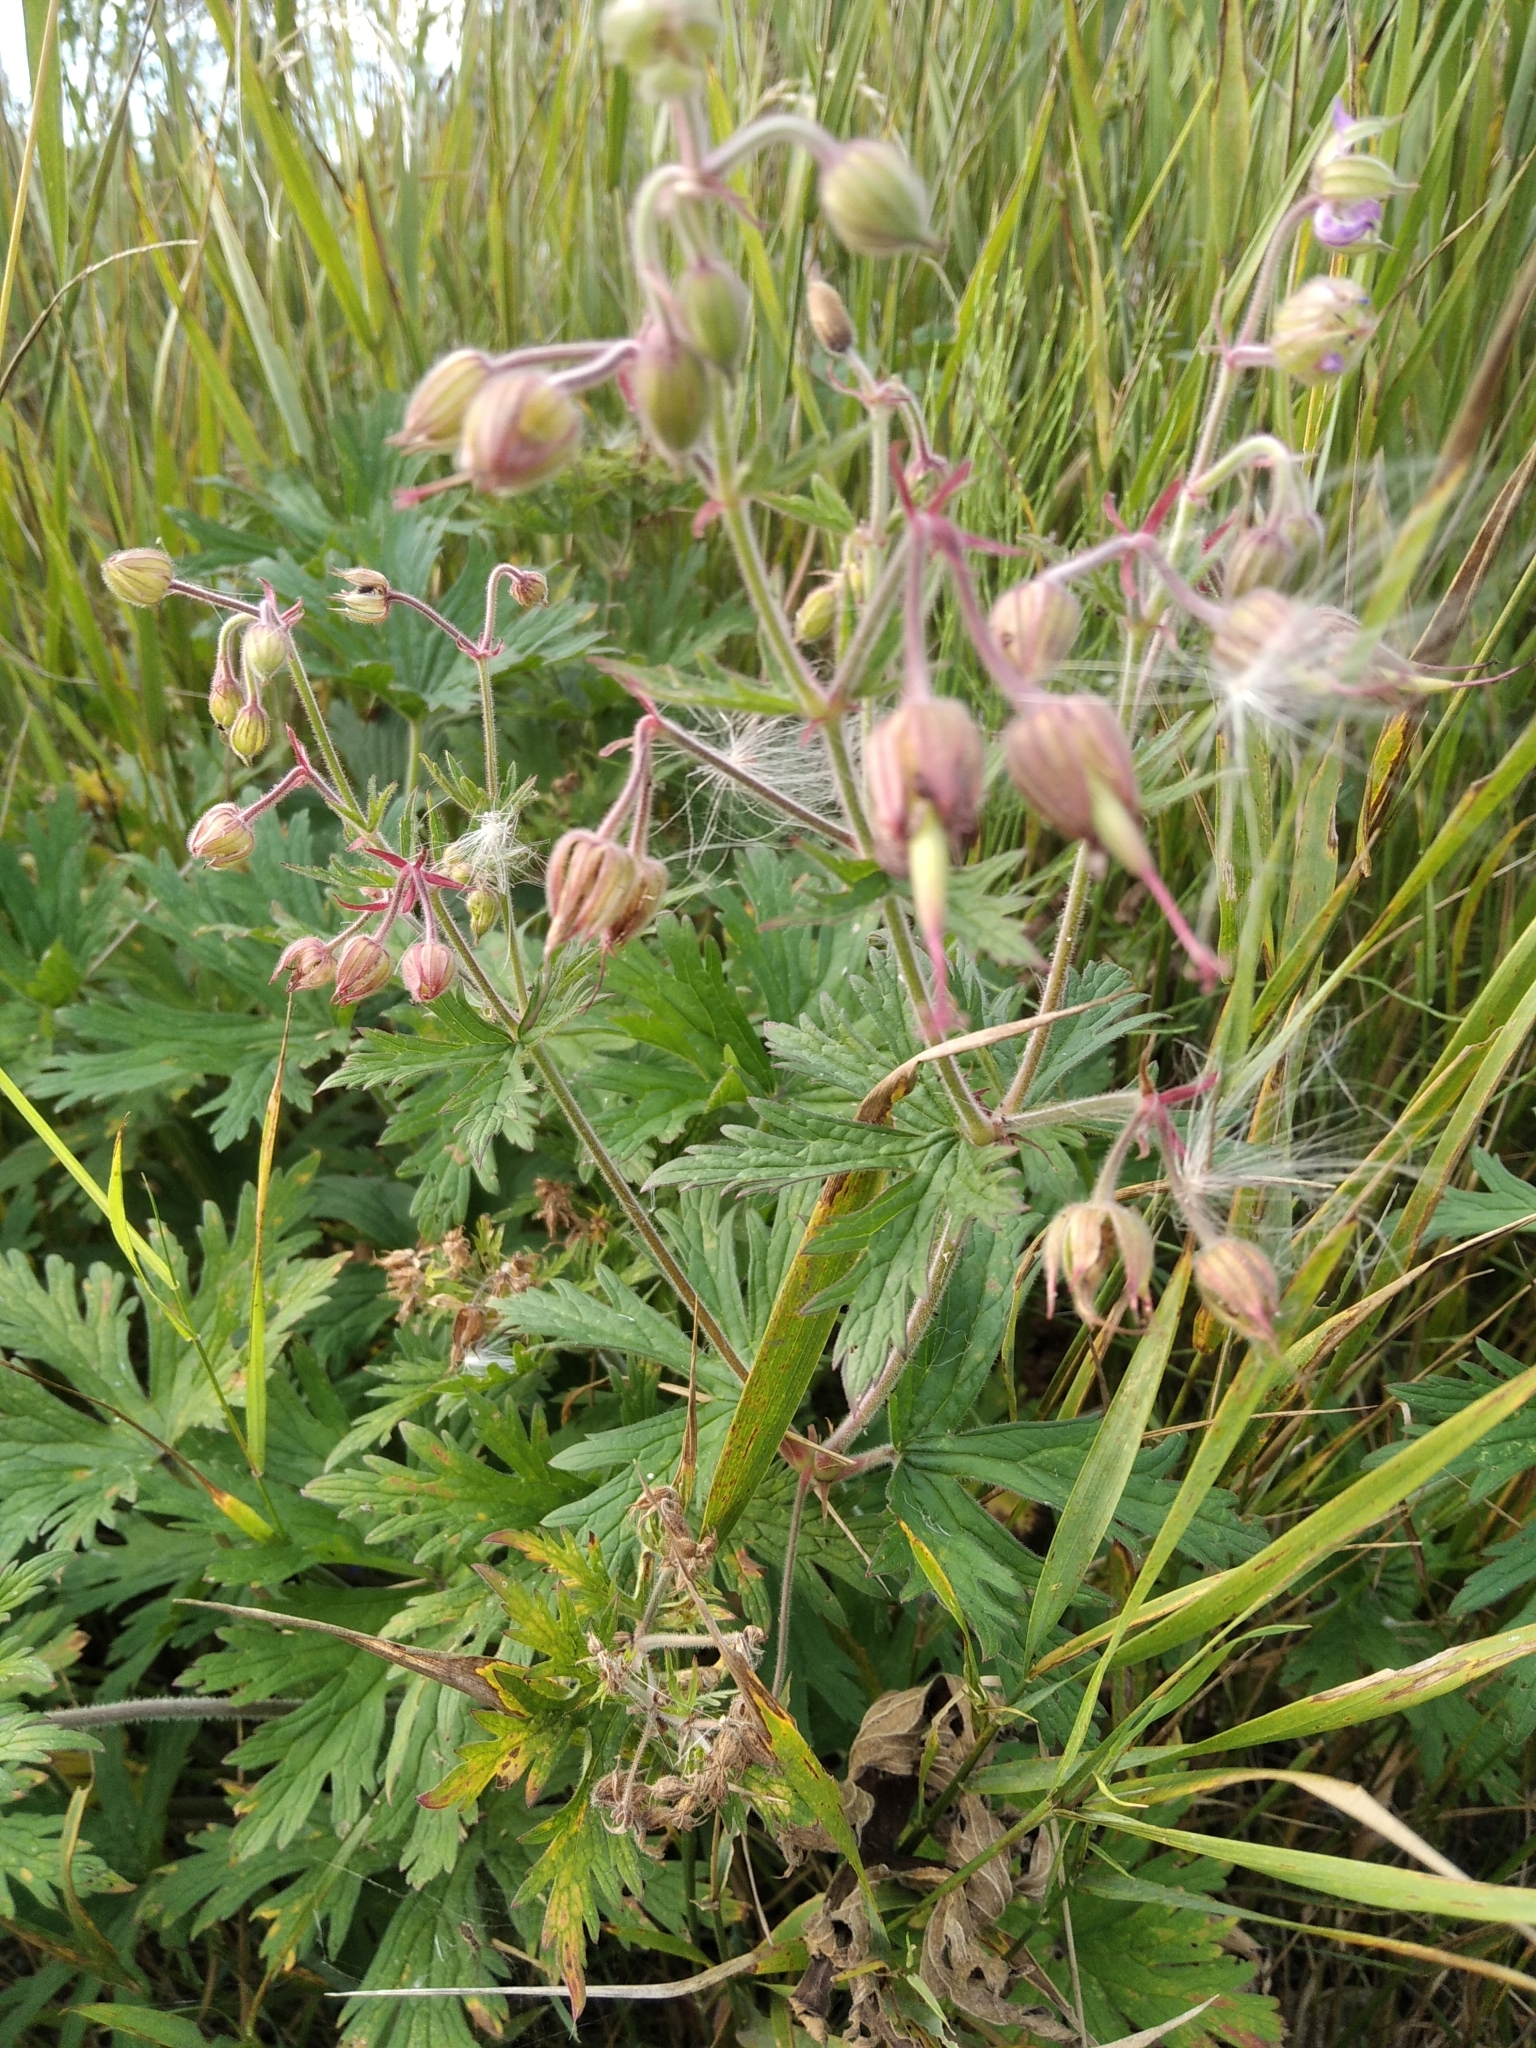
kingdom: Plantae
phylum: Tracheophyta
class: Magnoliopsida
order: Geraniales
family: Geraniaceae
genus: Geranium
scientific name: Geranium pratense
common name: Meadow crane's-bill
